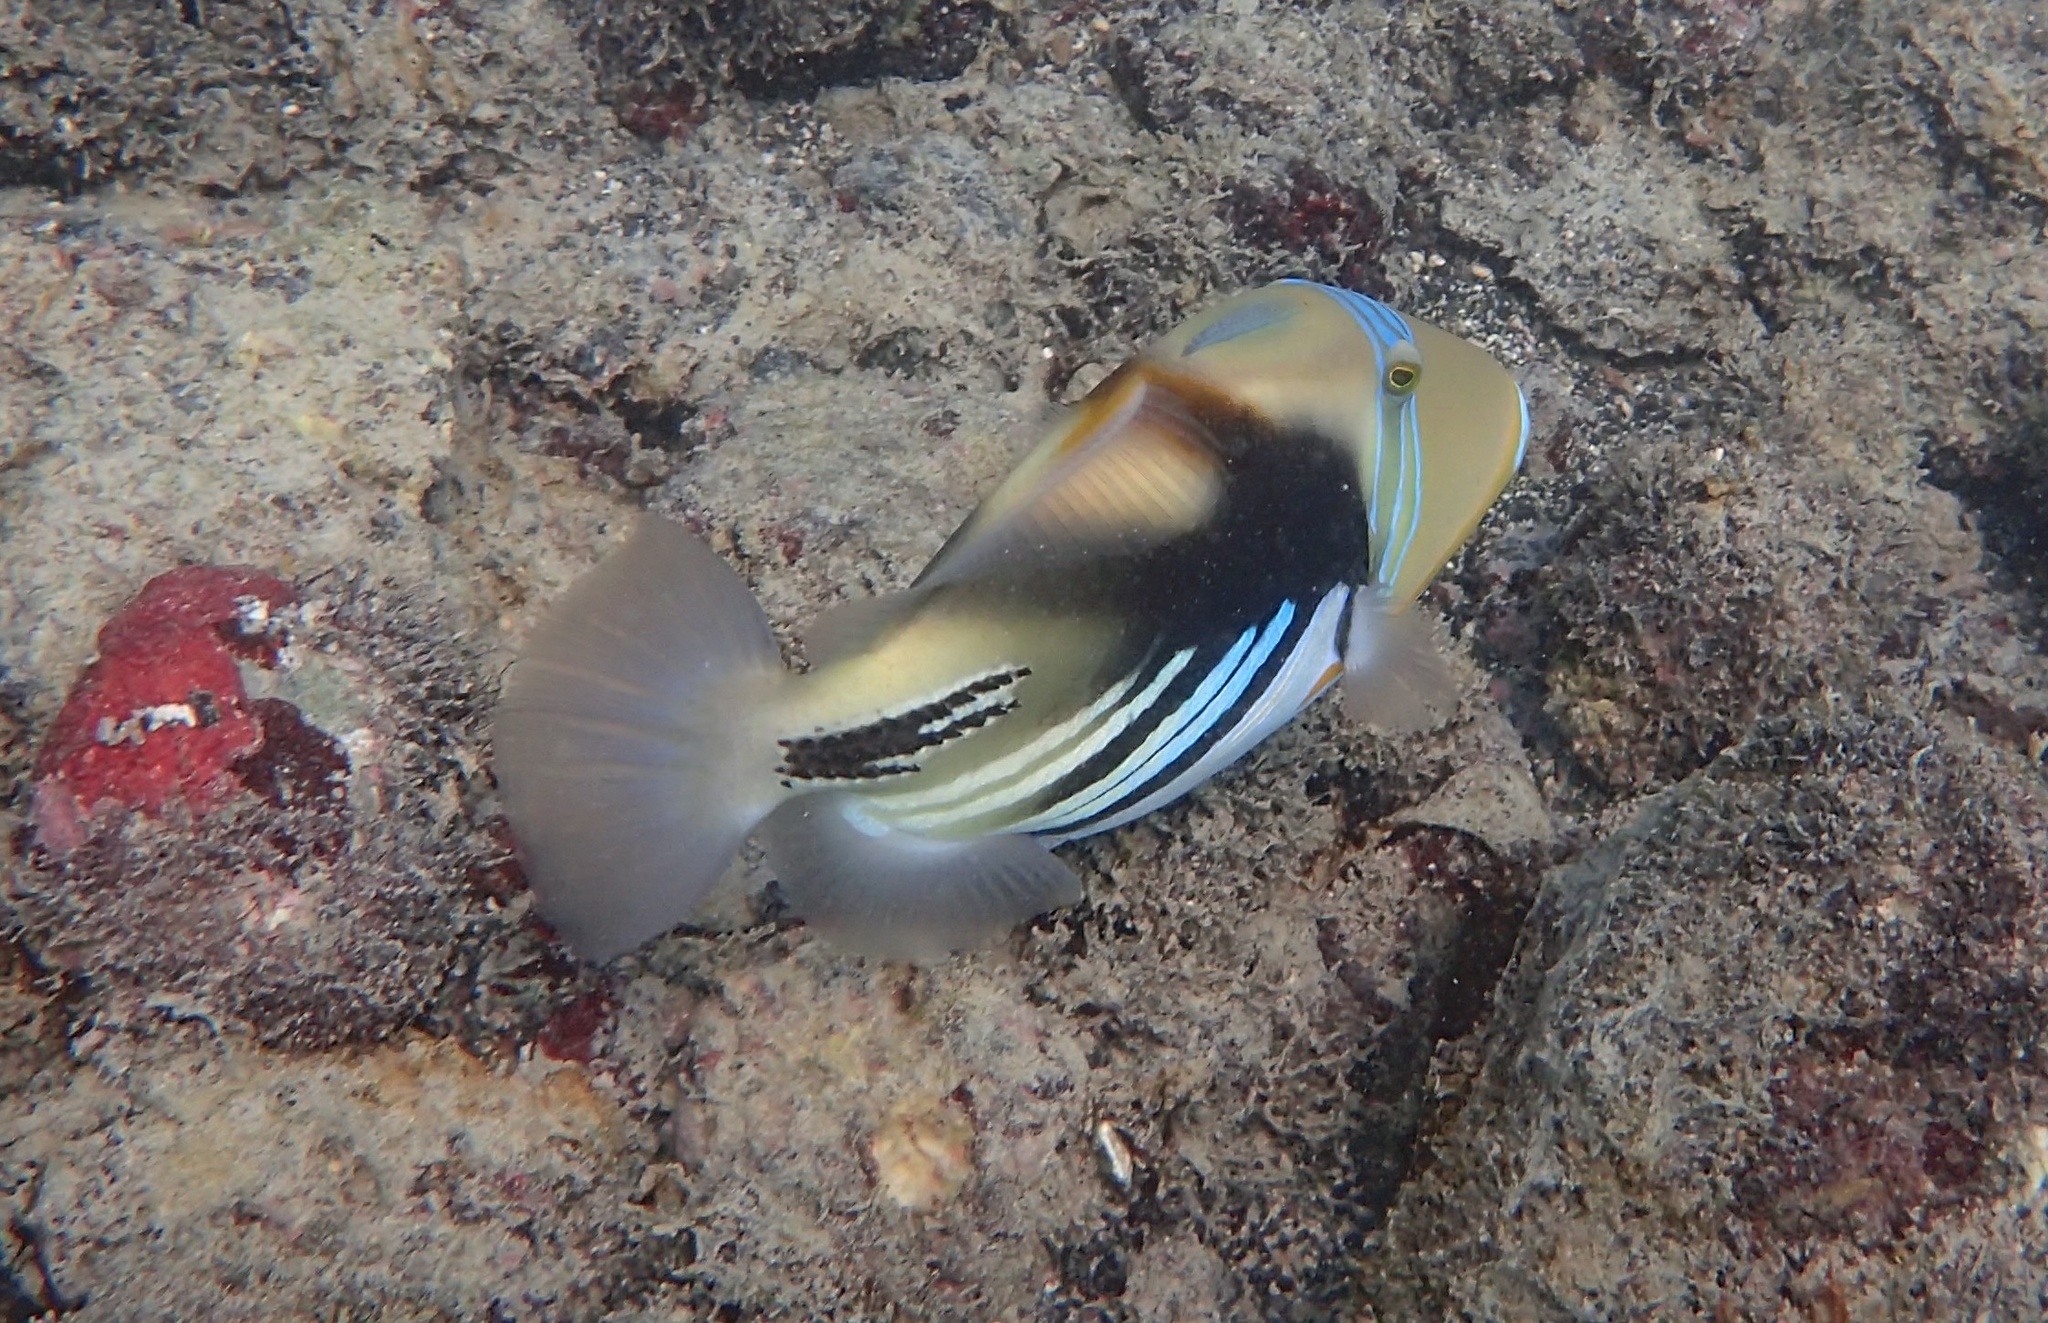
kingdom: Animalia
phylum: Chordata
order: Tetraodontiformes
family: Balistidae
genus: Rhinecanthus
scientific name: Rhinecanthus aculeatus
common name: White-banded triggerfish
